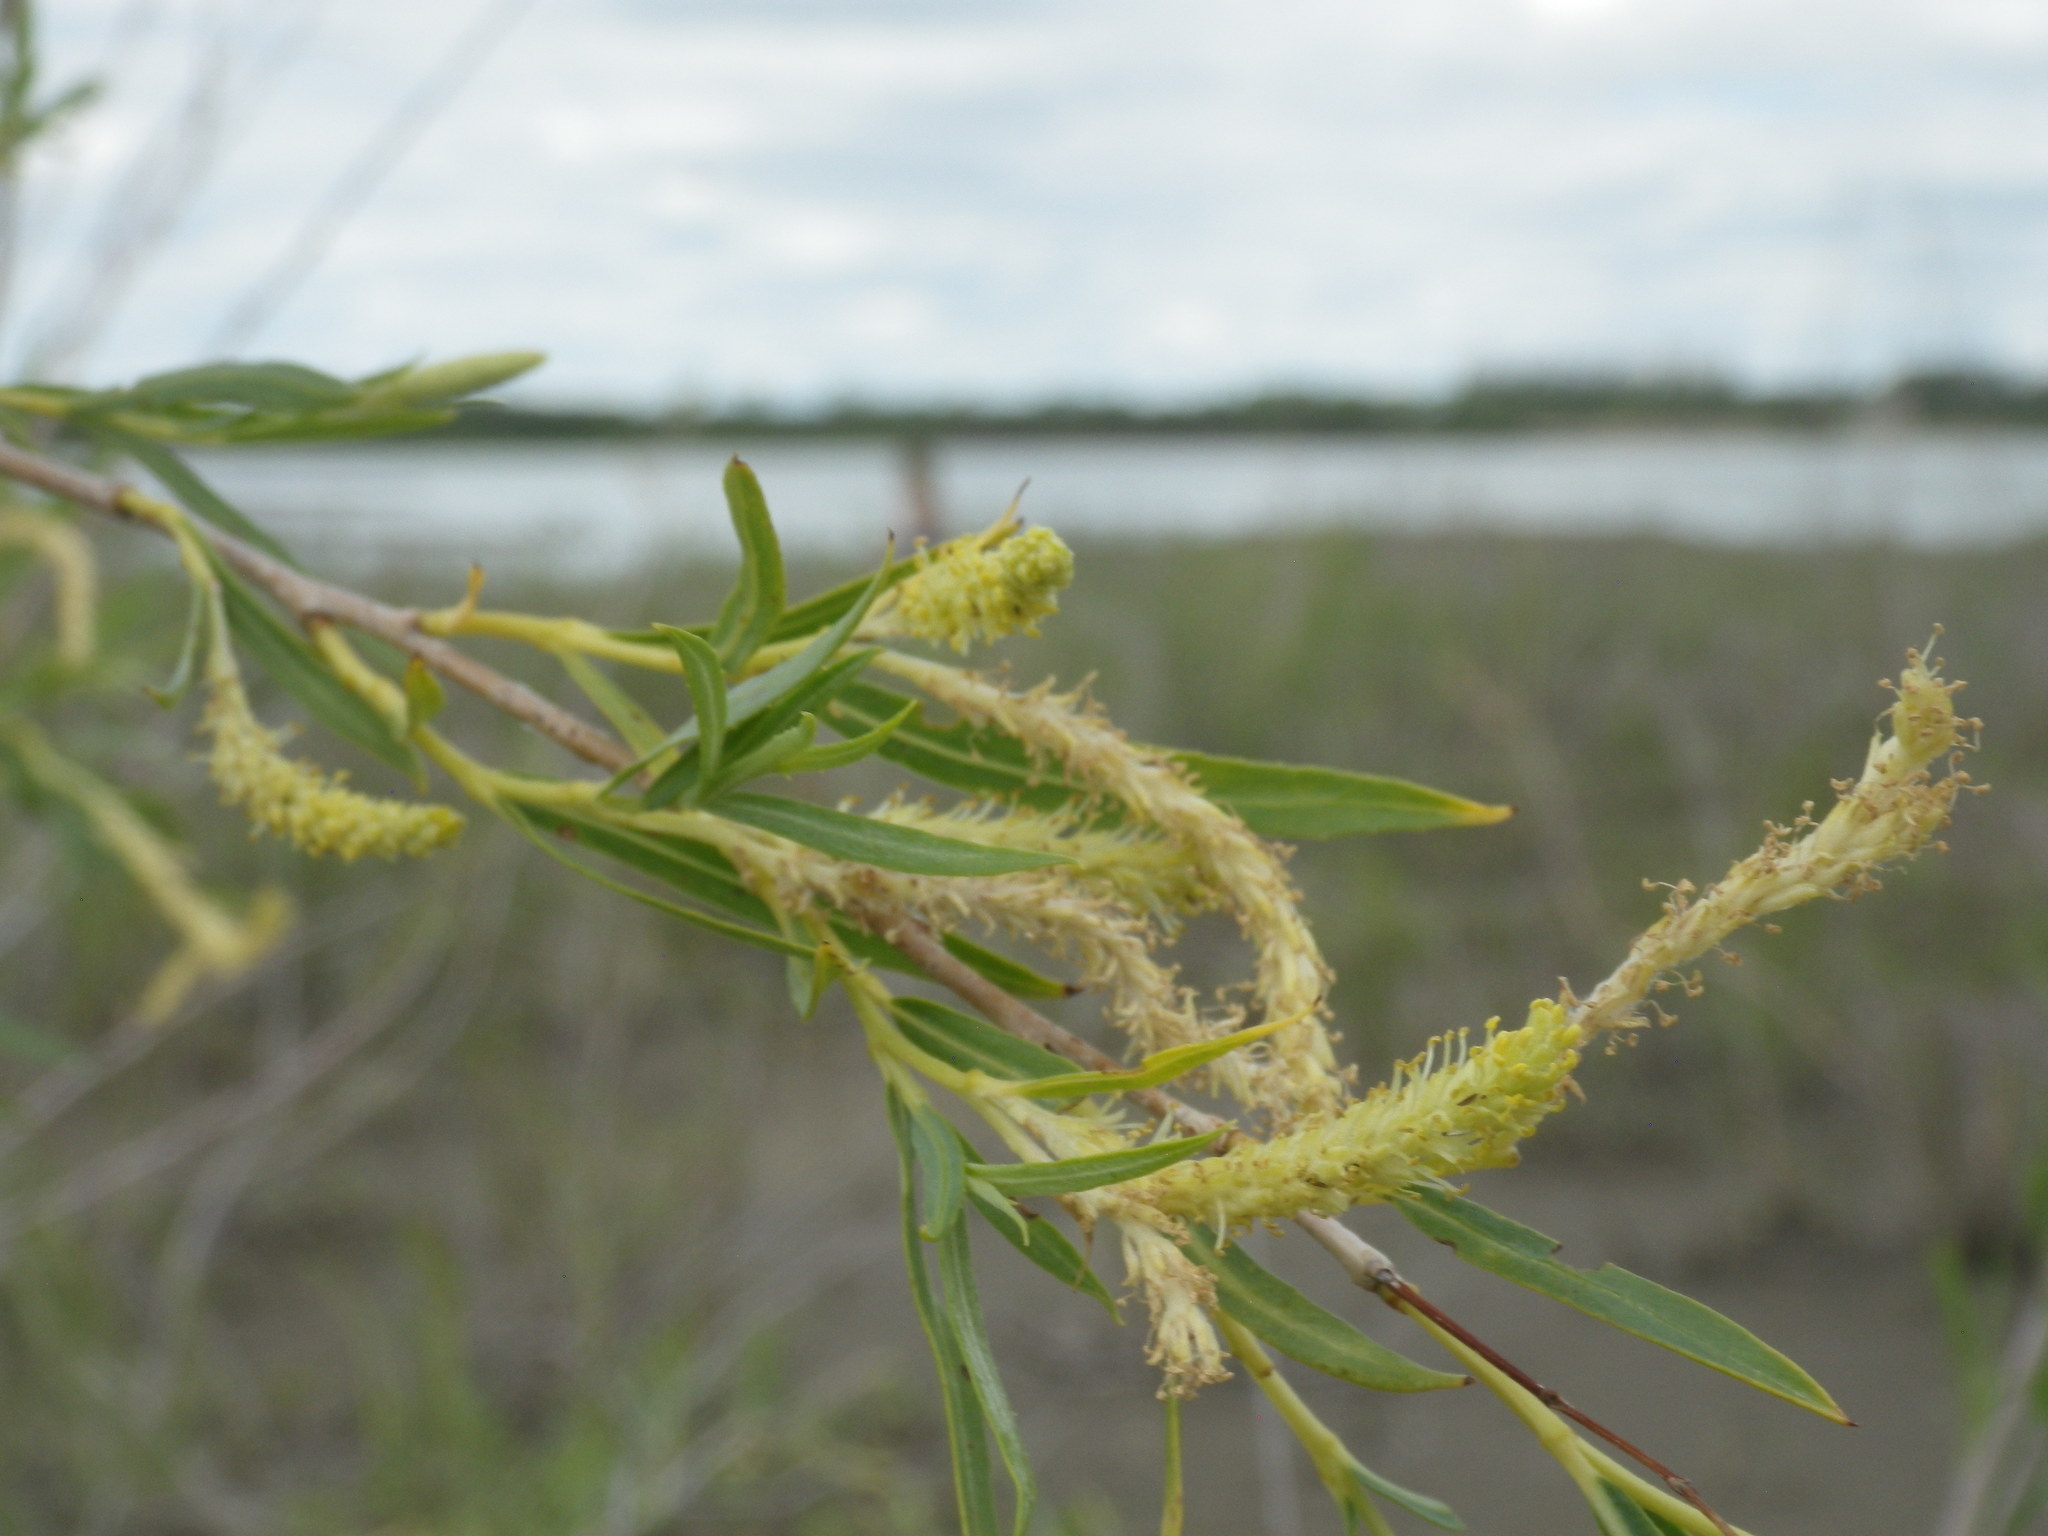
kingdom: Plantae
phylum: Tracheophyta
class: Magnoliopsida
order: Malpighiales
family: Salicaceae
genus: Salix
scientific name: Salix interior
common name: Sandbar willow
